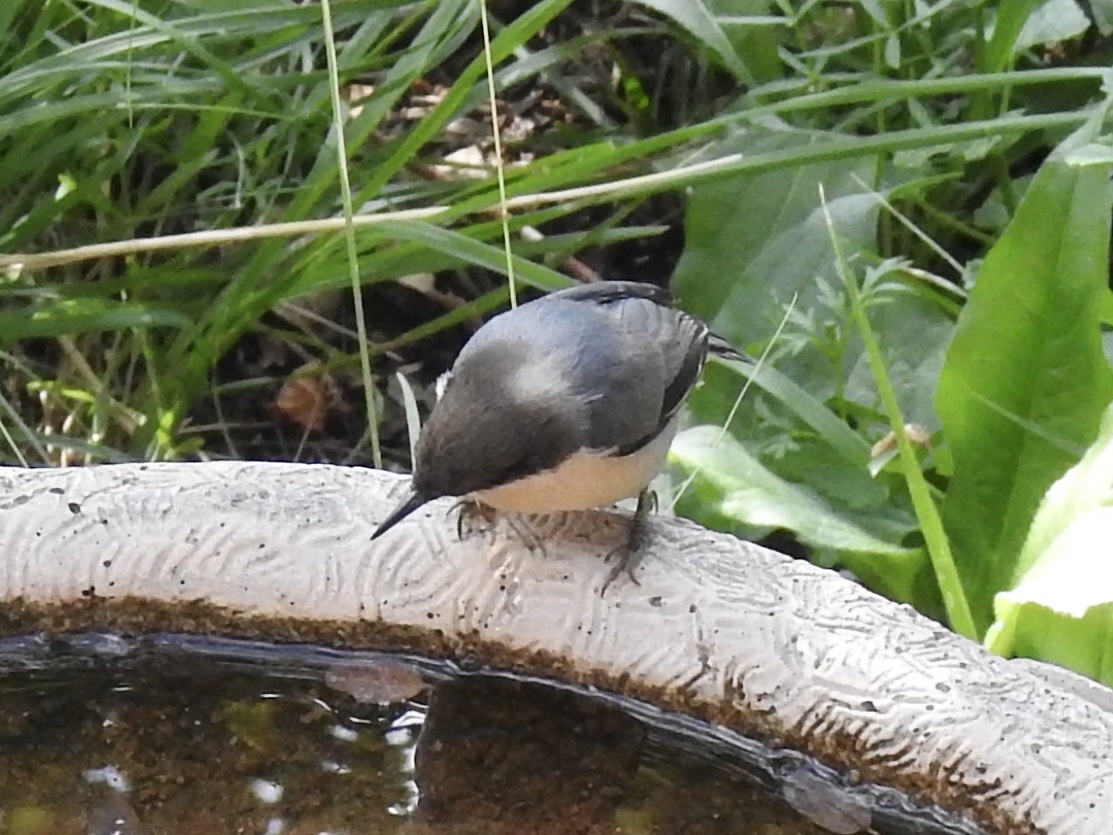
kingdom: Animalia
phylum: Chordata
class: Aves
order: Passeriformes
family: Sittidae
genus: Sitta
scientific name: Sitta pygmaea
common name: Pygmy nuthatch
